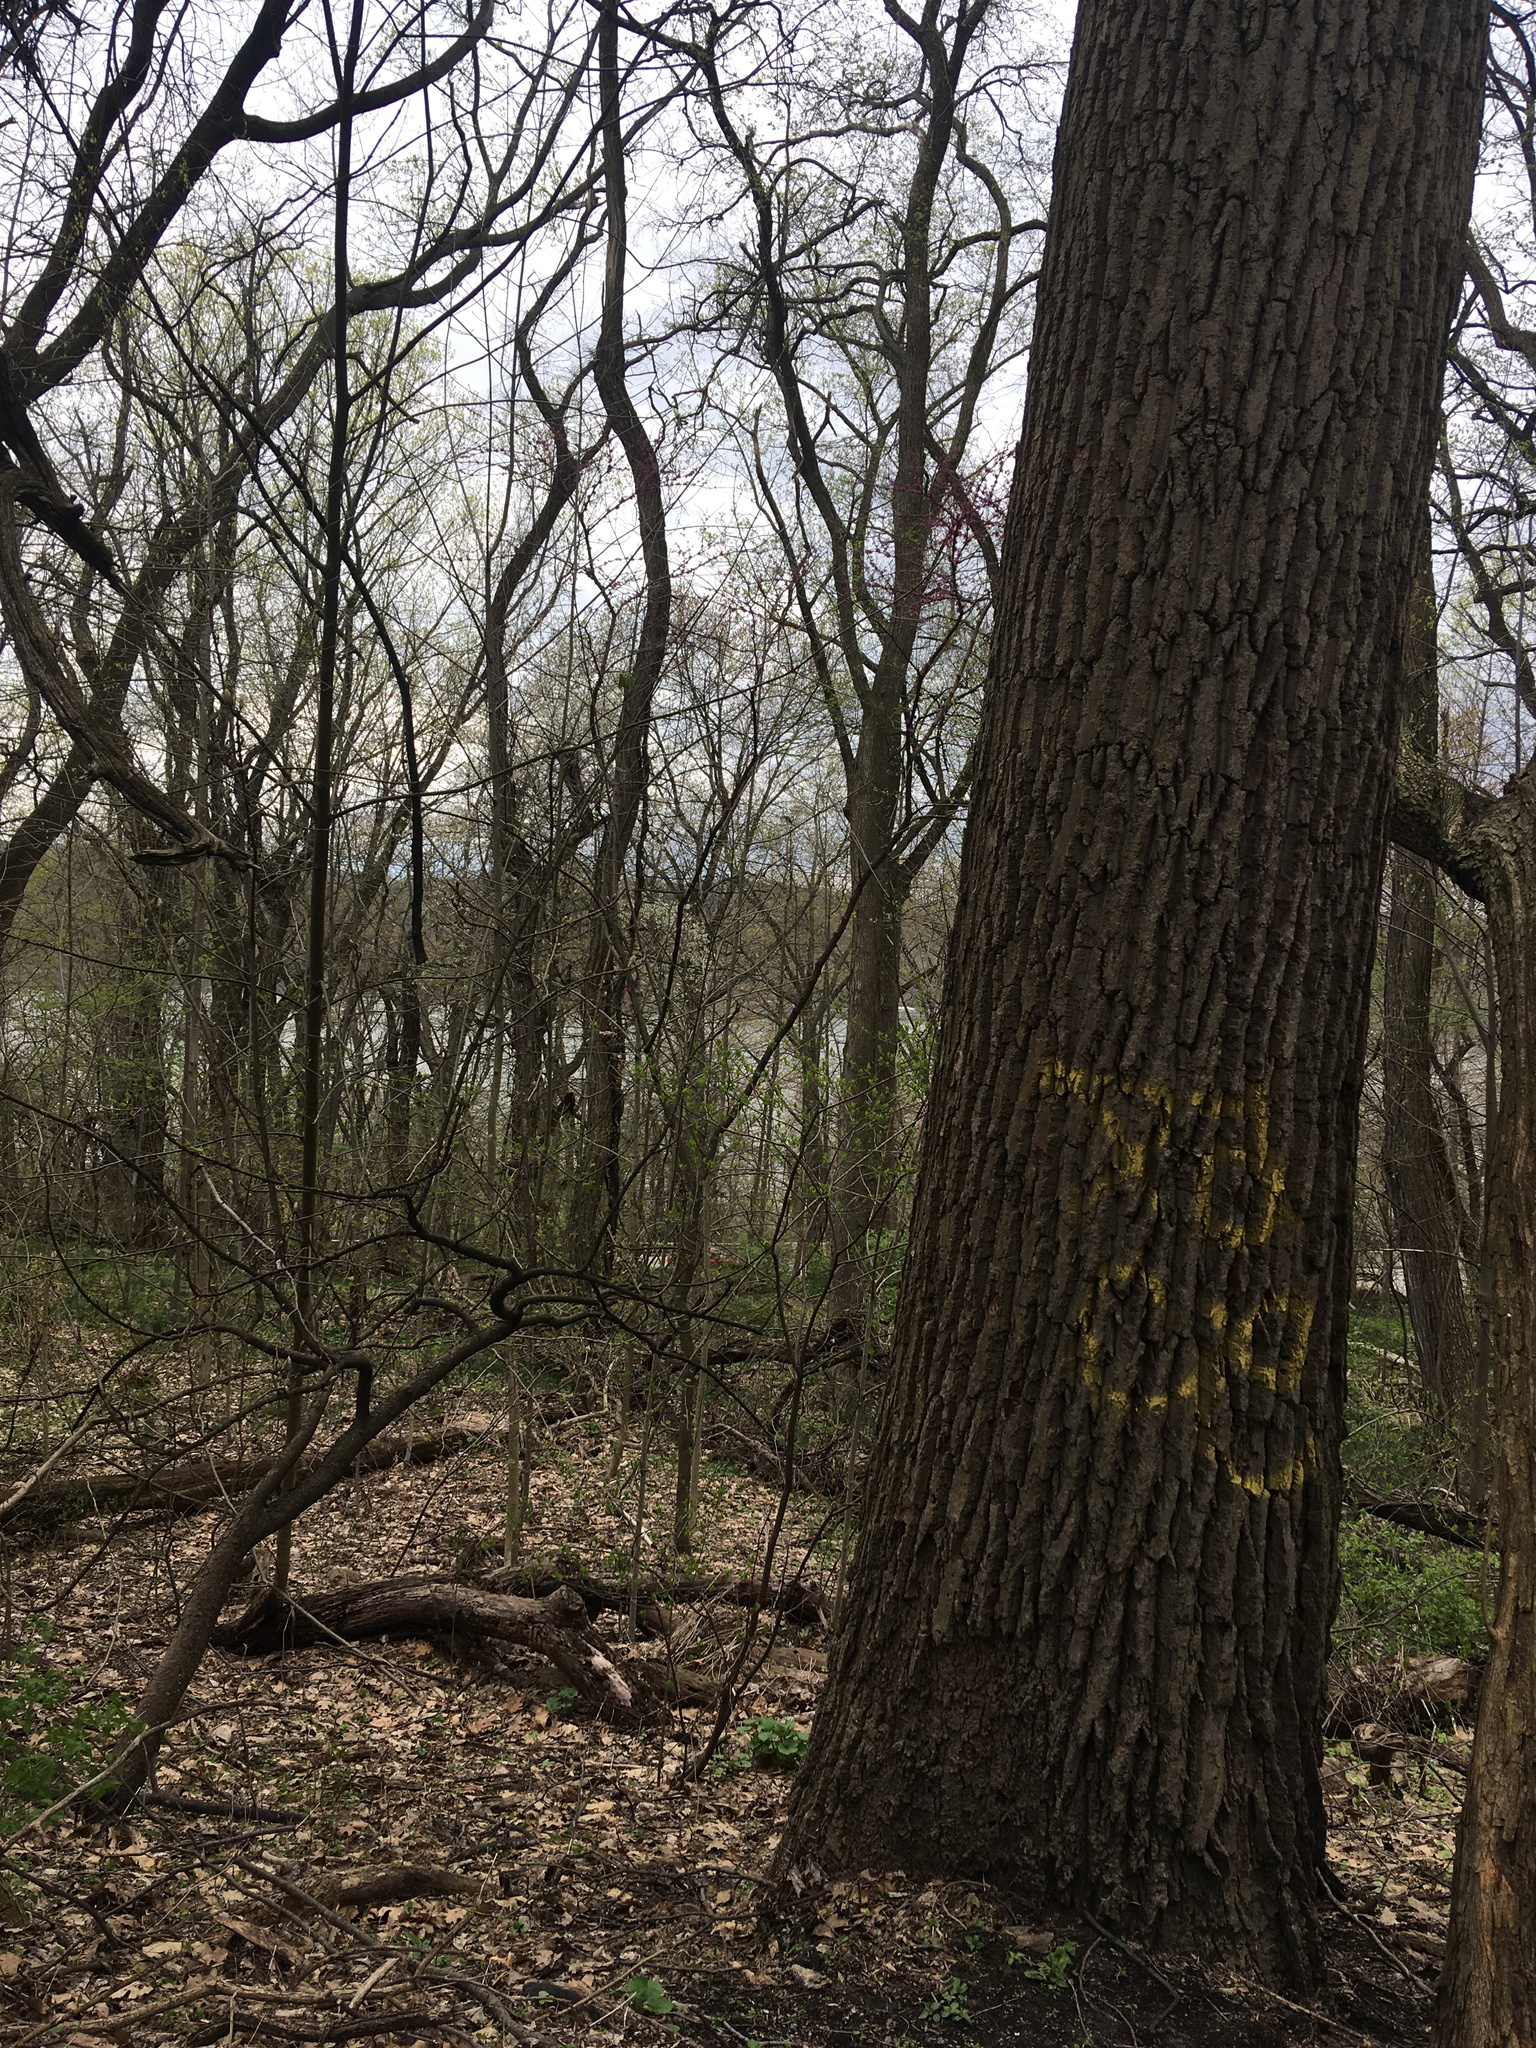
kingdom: Plantae
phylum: Tracheophyta
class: Magnoliopsida
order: Magnoliales
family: Magnoliaceae
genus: Liriodendron
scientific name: Liriodendron tulipifera
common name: Tulip tree
